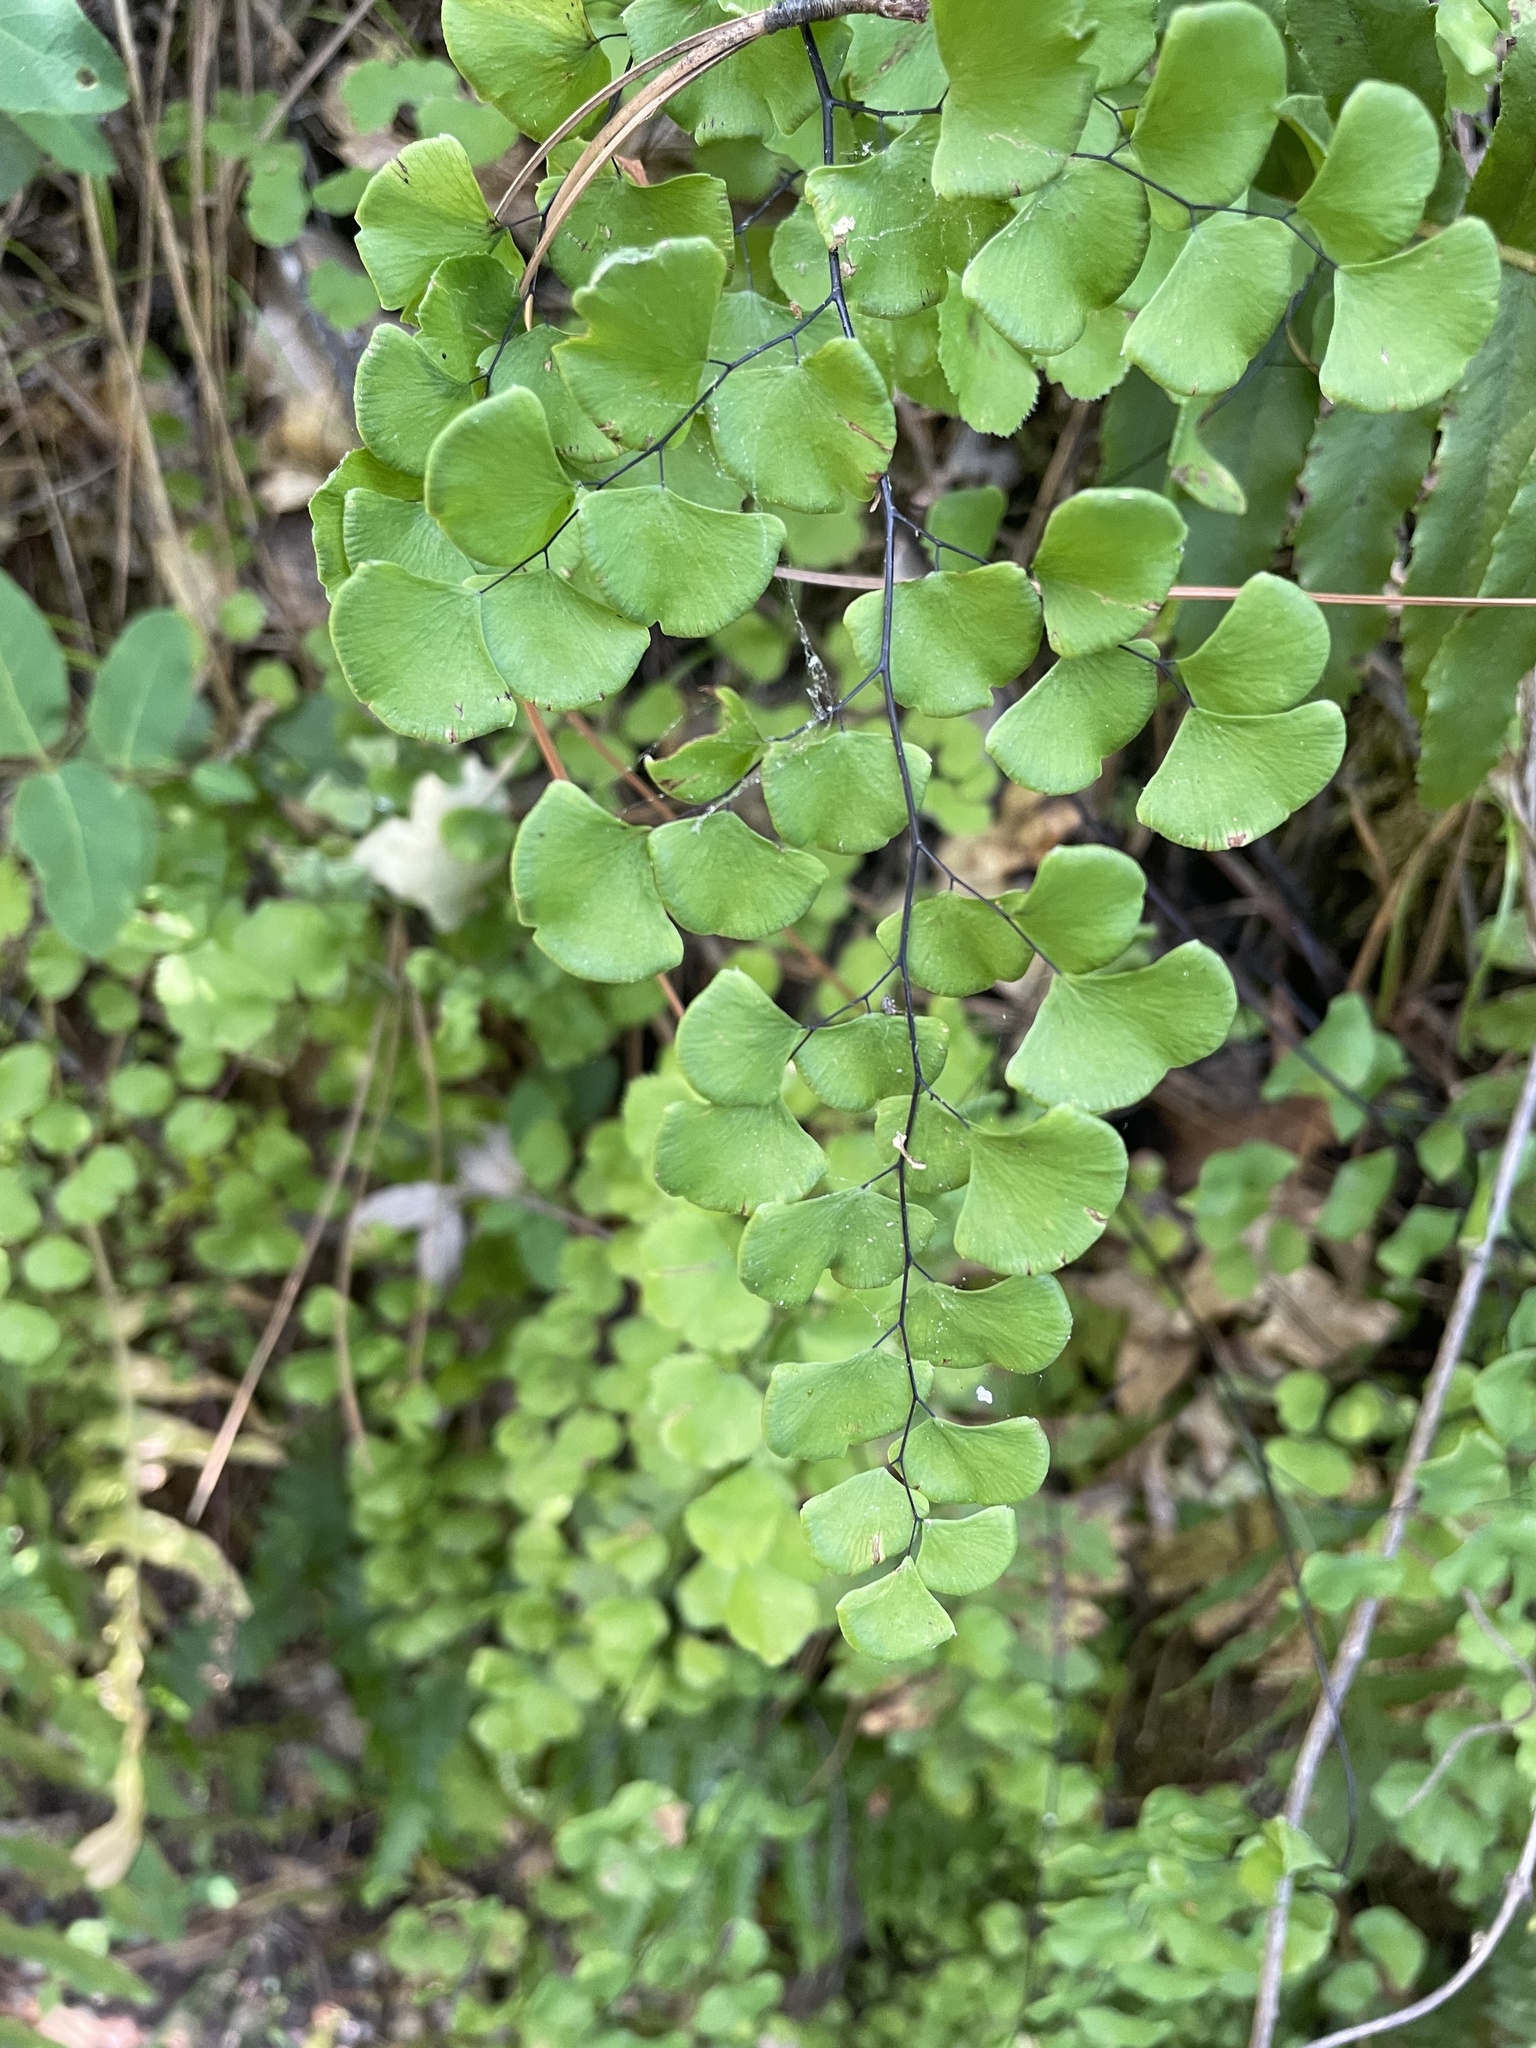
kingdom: Plantae
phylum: Tracheophyta
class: Polypodiopsida
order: Polypodiales
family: Pteridaceae
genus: Adiantum
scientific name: Adiantum jordanii
